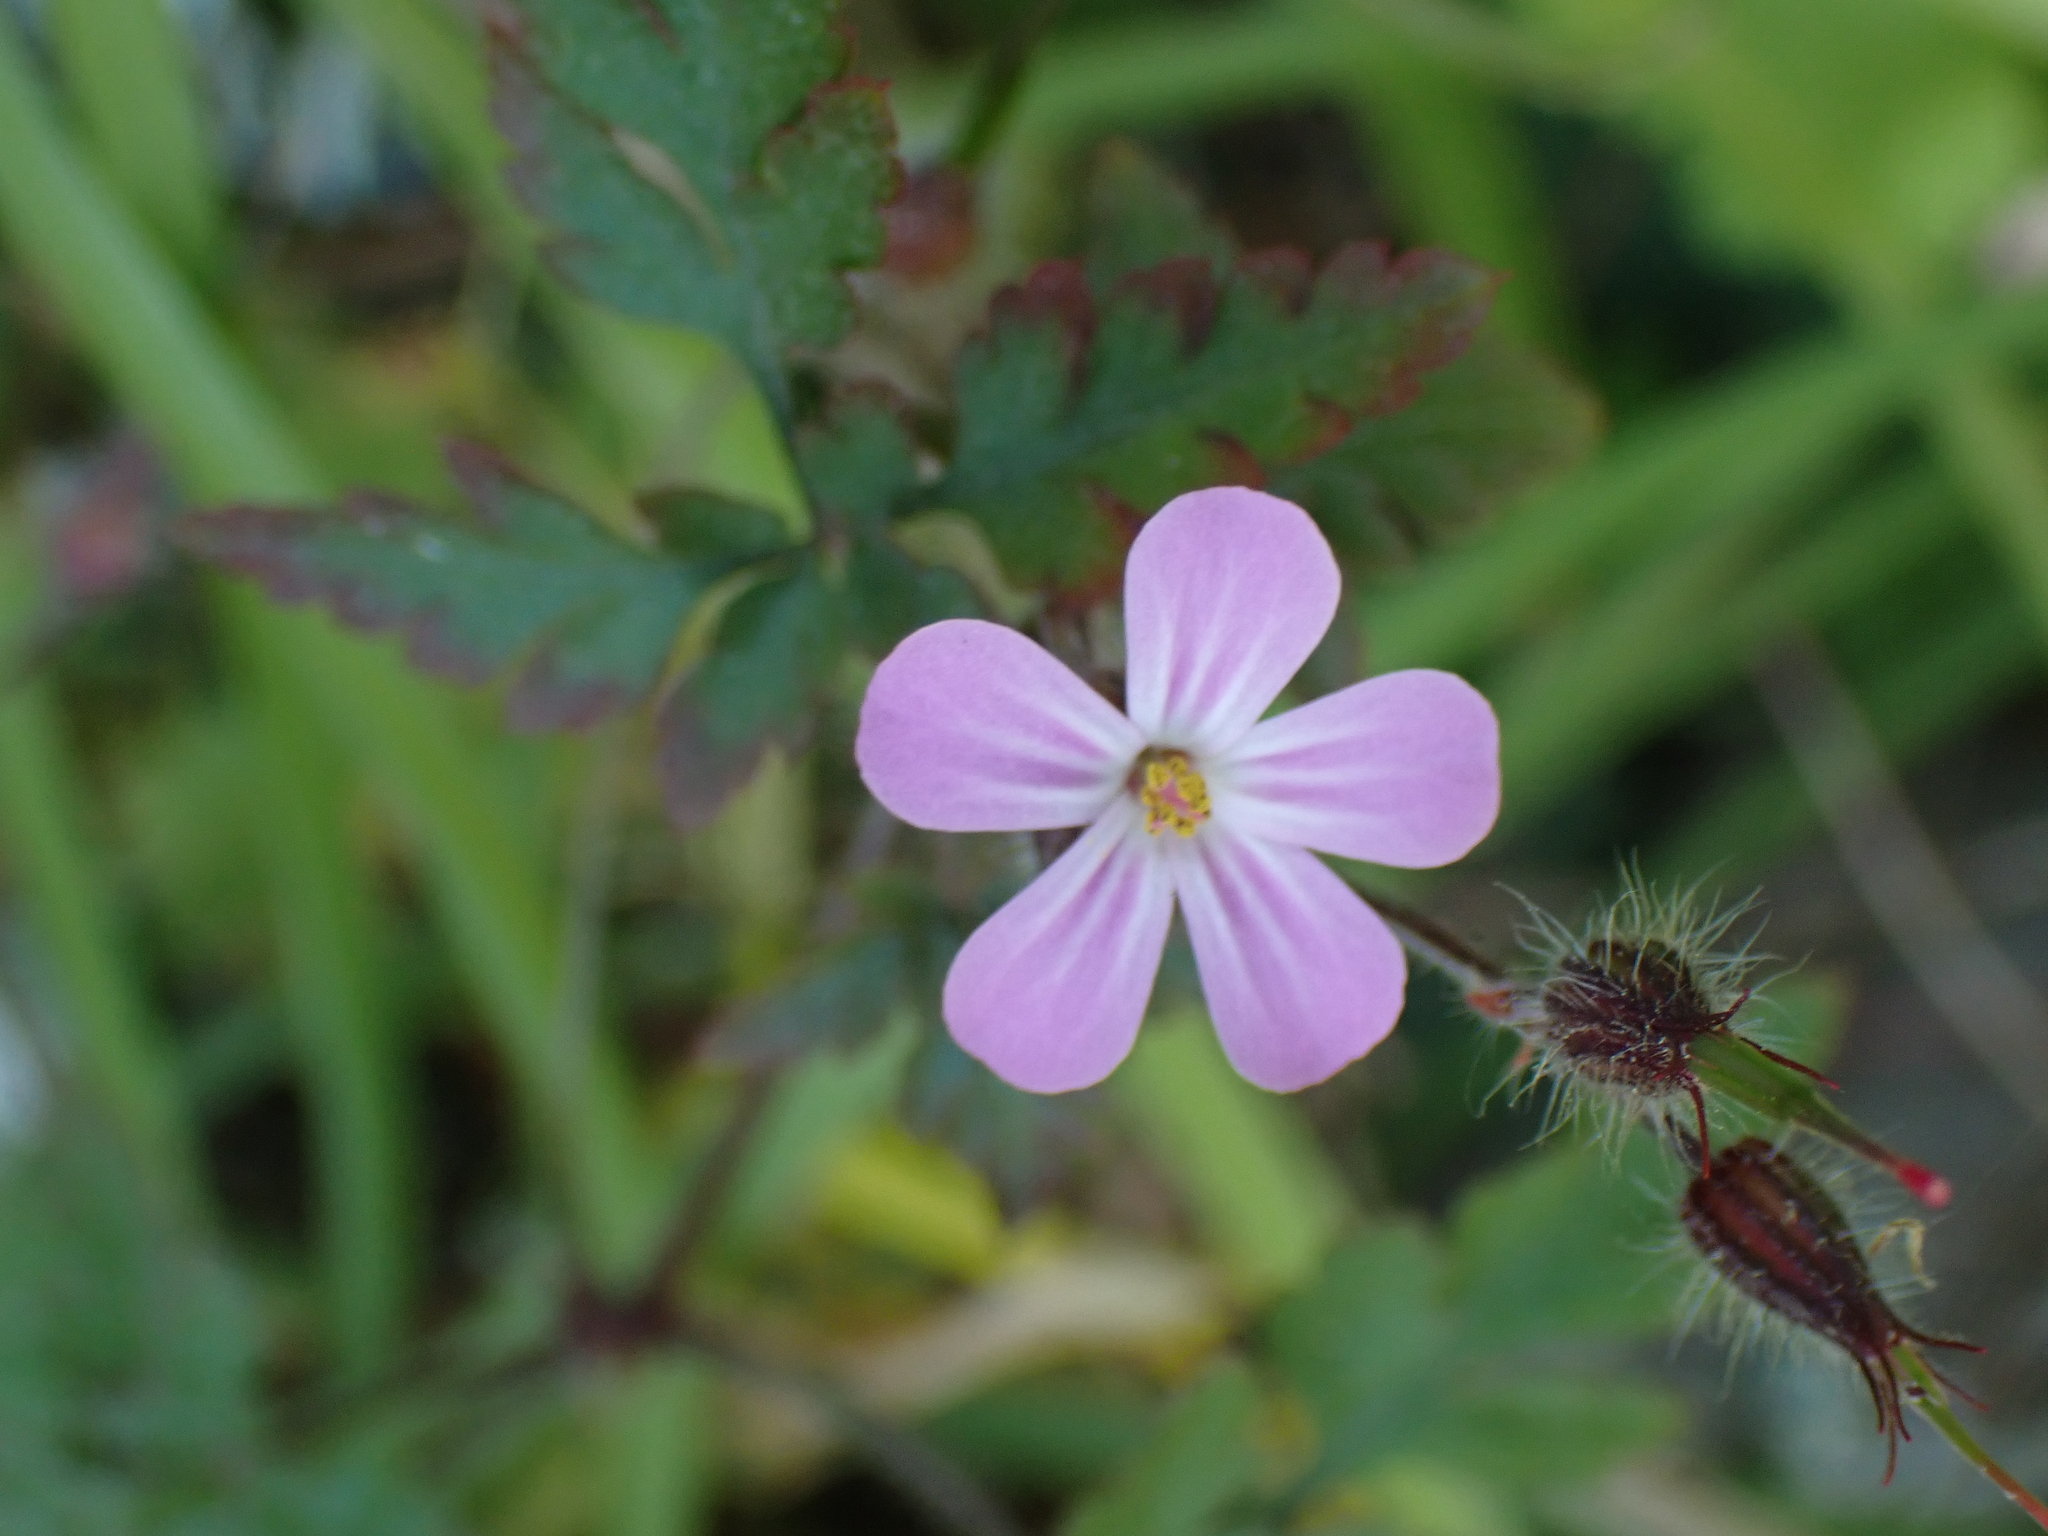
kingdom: Plantae
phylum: Tracheophyta
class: Magnoliopsida
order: Geraniales
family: Geraniaceae
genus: Geranium
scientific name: Geranium robertianum
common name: Herb-robert
